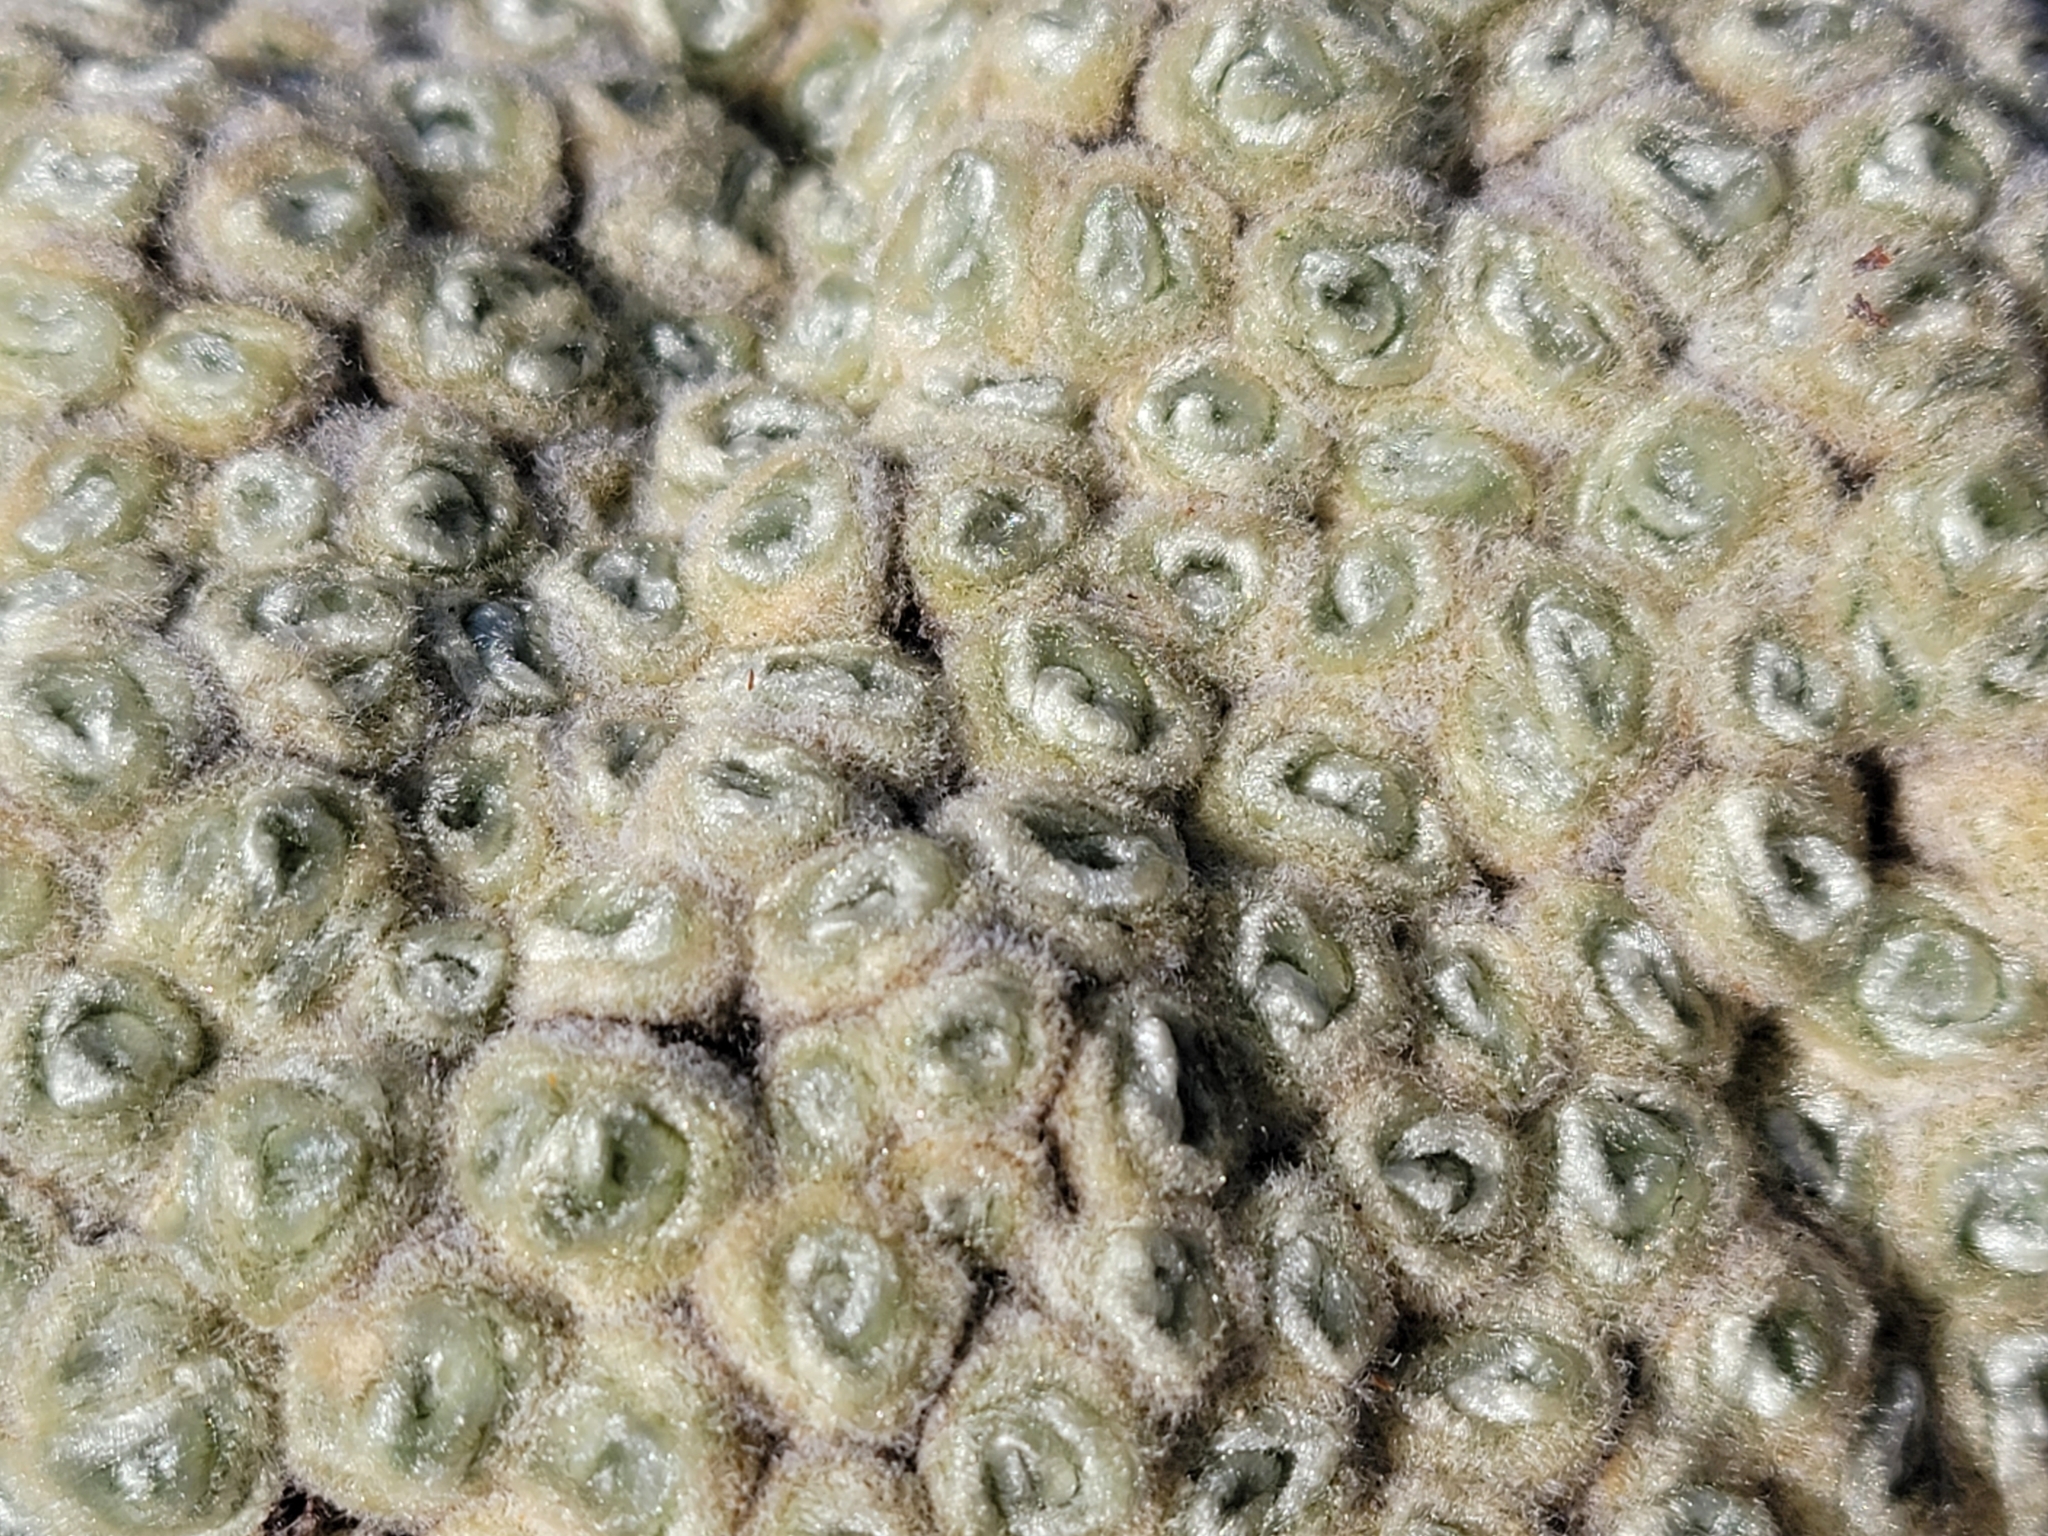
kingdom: Plantae
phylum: Tracheophyta
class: Magnoliopsida
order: Asterales
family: Asteraceae
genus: Haastia
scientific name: Haastia pulvinaris
